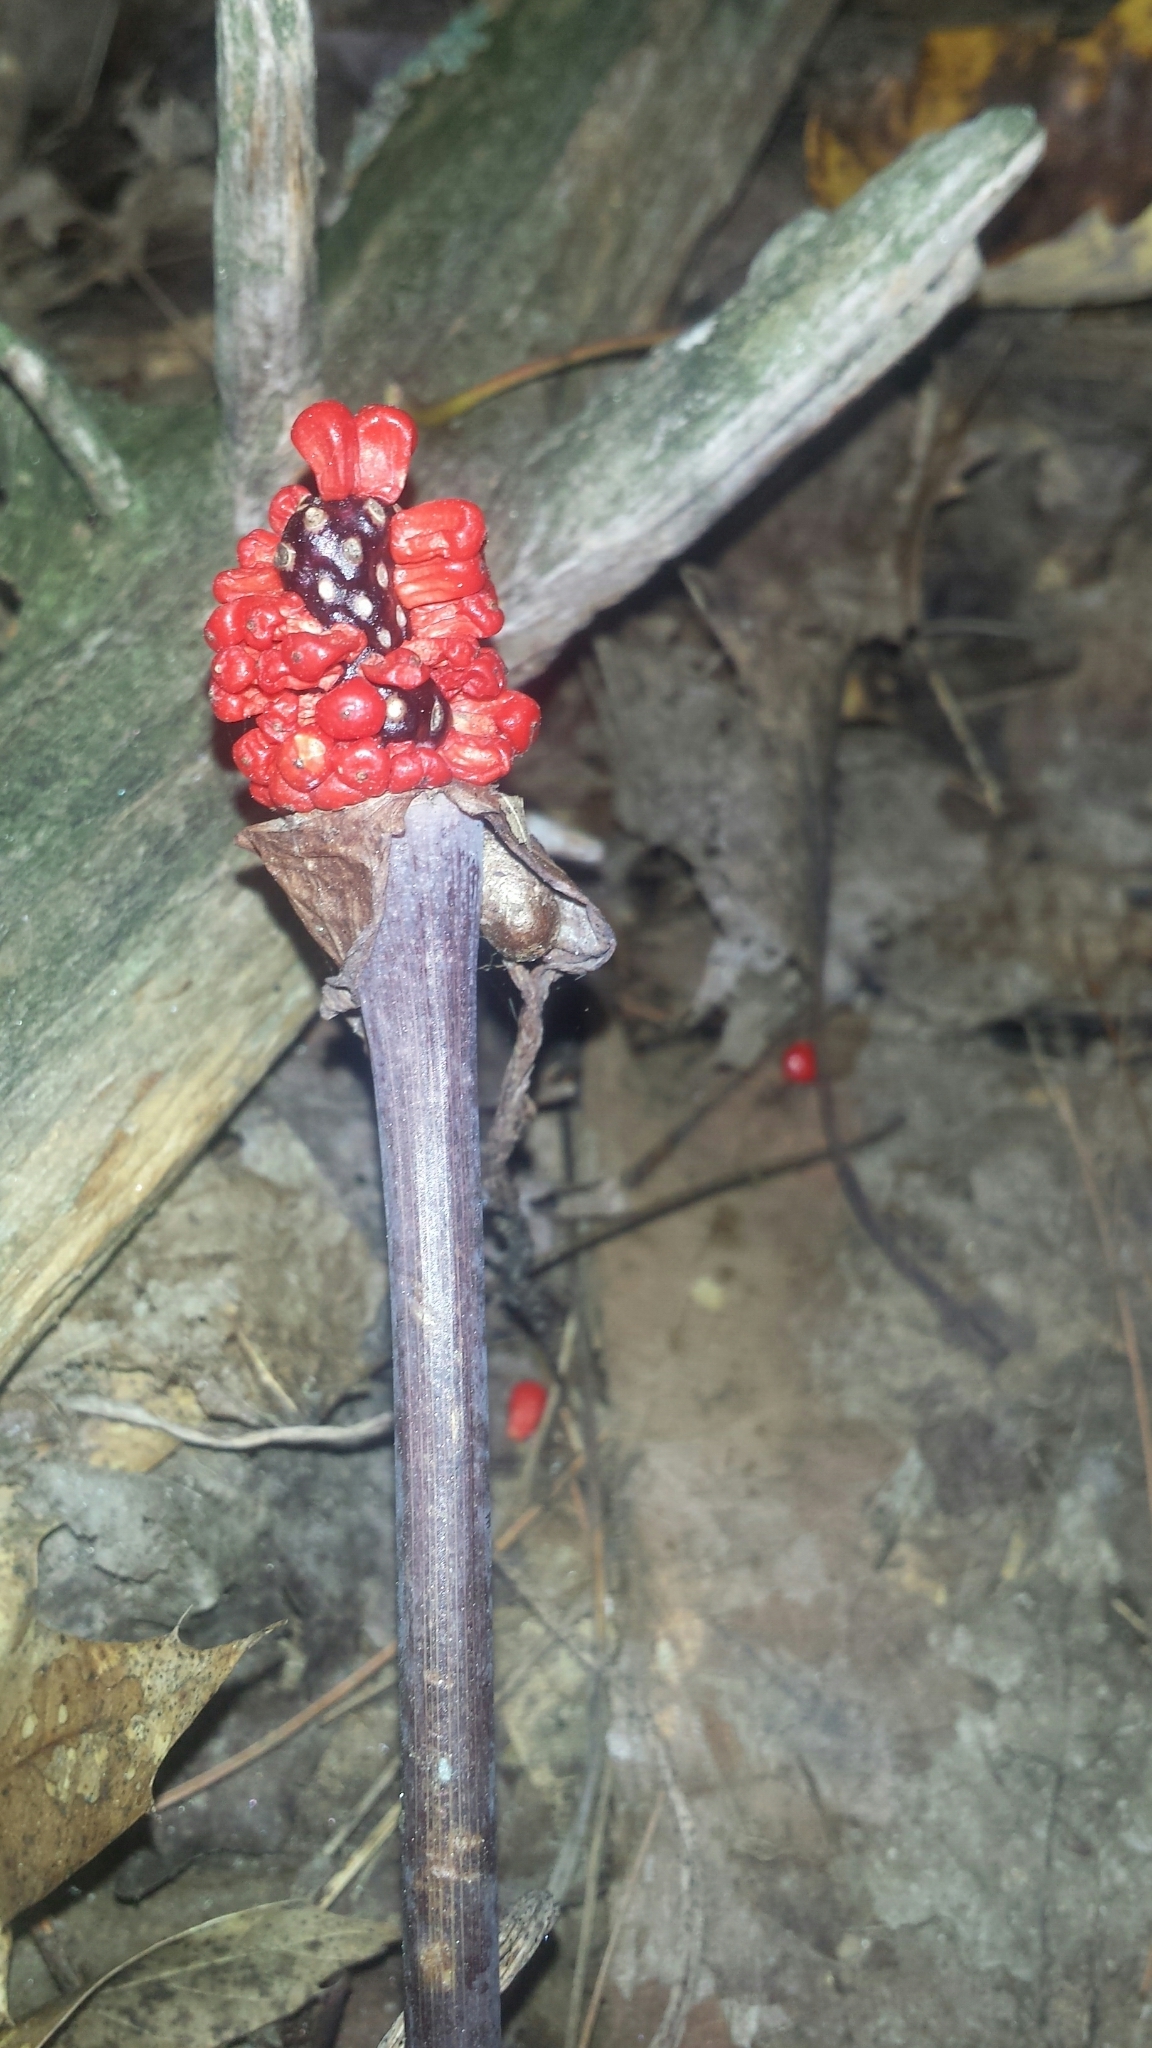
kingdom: Plantae
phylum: Tracheophyta
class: Liliopsida
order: Alismatales
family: Araceae
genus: Arisaema
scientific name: Arisaema triphyllum
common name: Jack-in-the-pulpit
